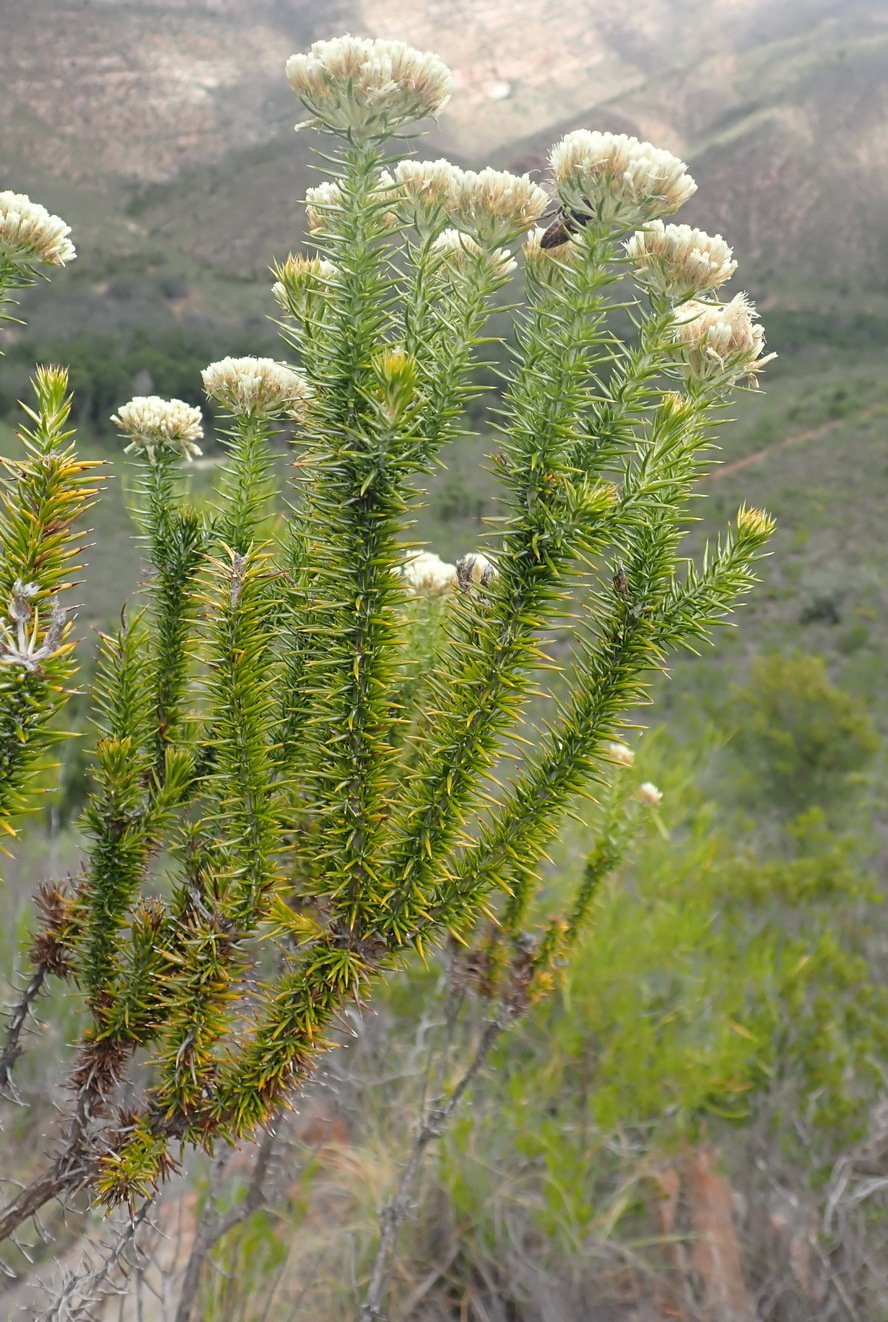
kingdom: Plantae
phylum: Tracheophyta
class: Magnoliopsida
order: Asterales
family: Asteraceae
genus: Metalasia
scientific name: Metalasia trivialis
